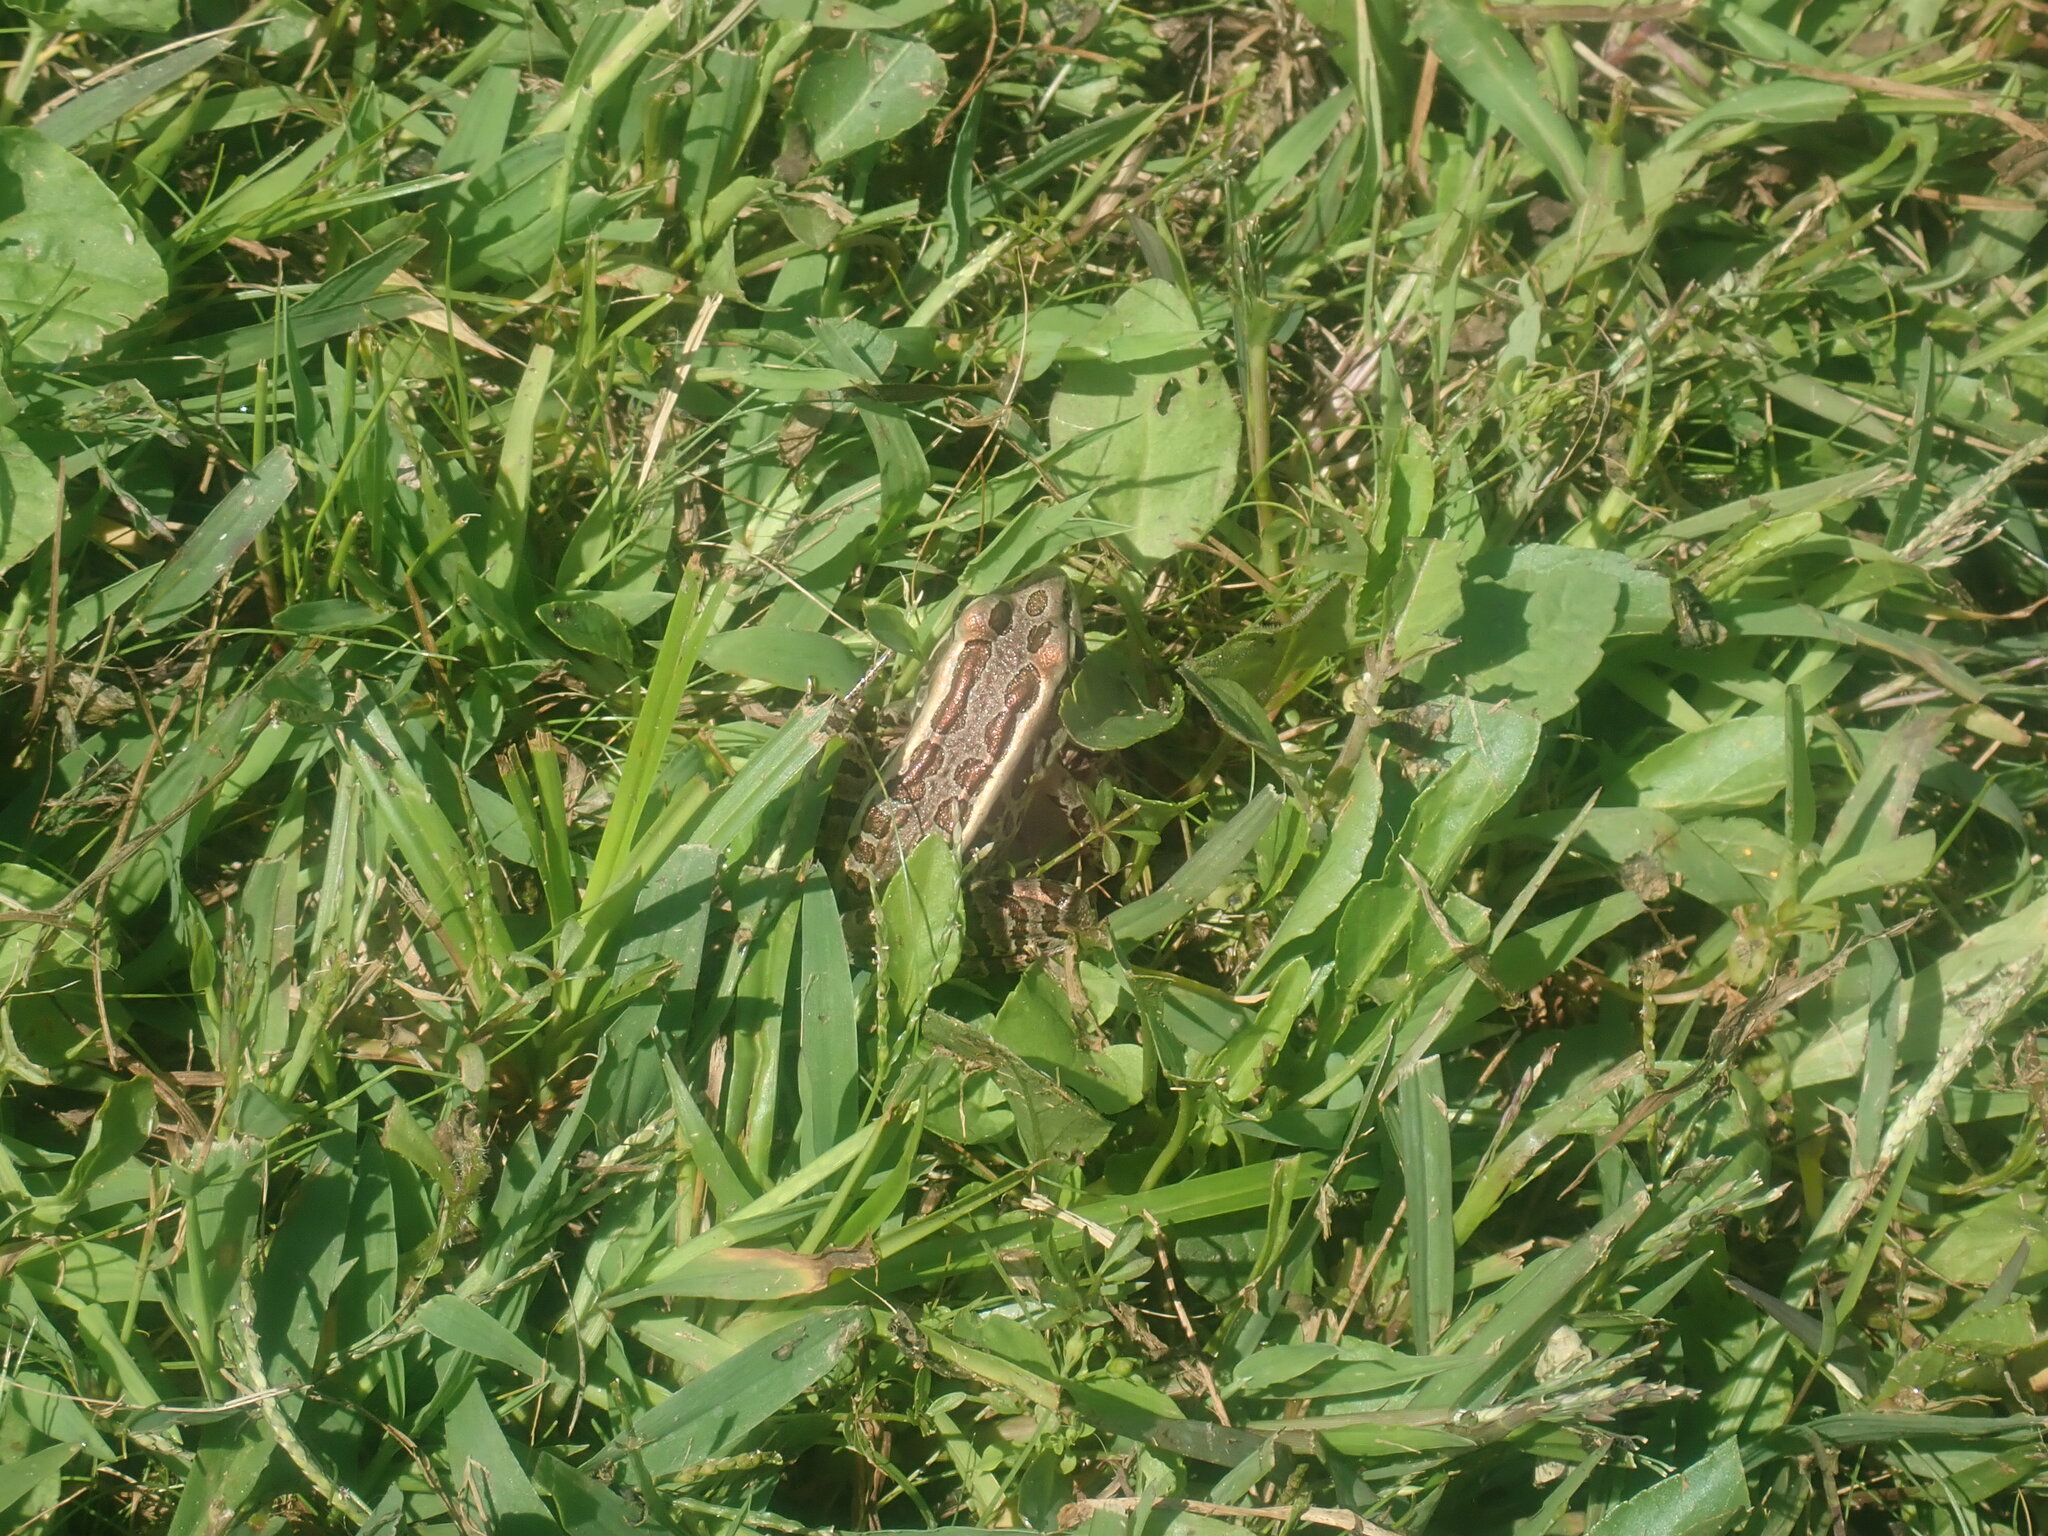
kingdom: Animalia
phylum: Chordata
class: Amphibia
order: Anura
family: Ranidae
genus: Lithobates
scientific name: Lithobates palustris
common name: Pickerel frog
